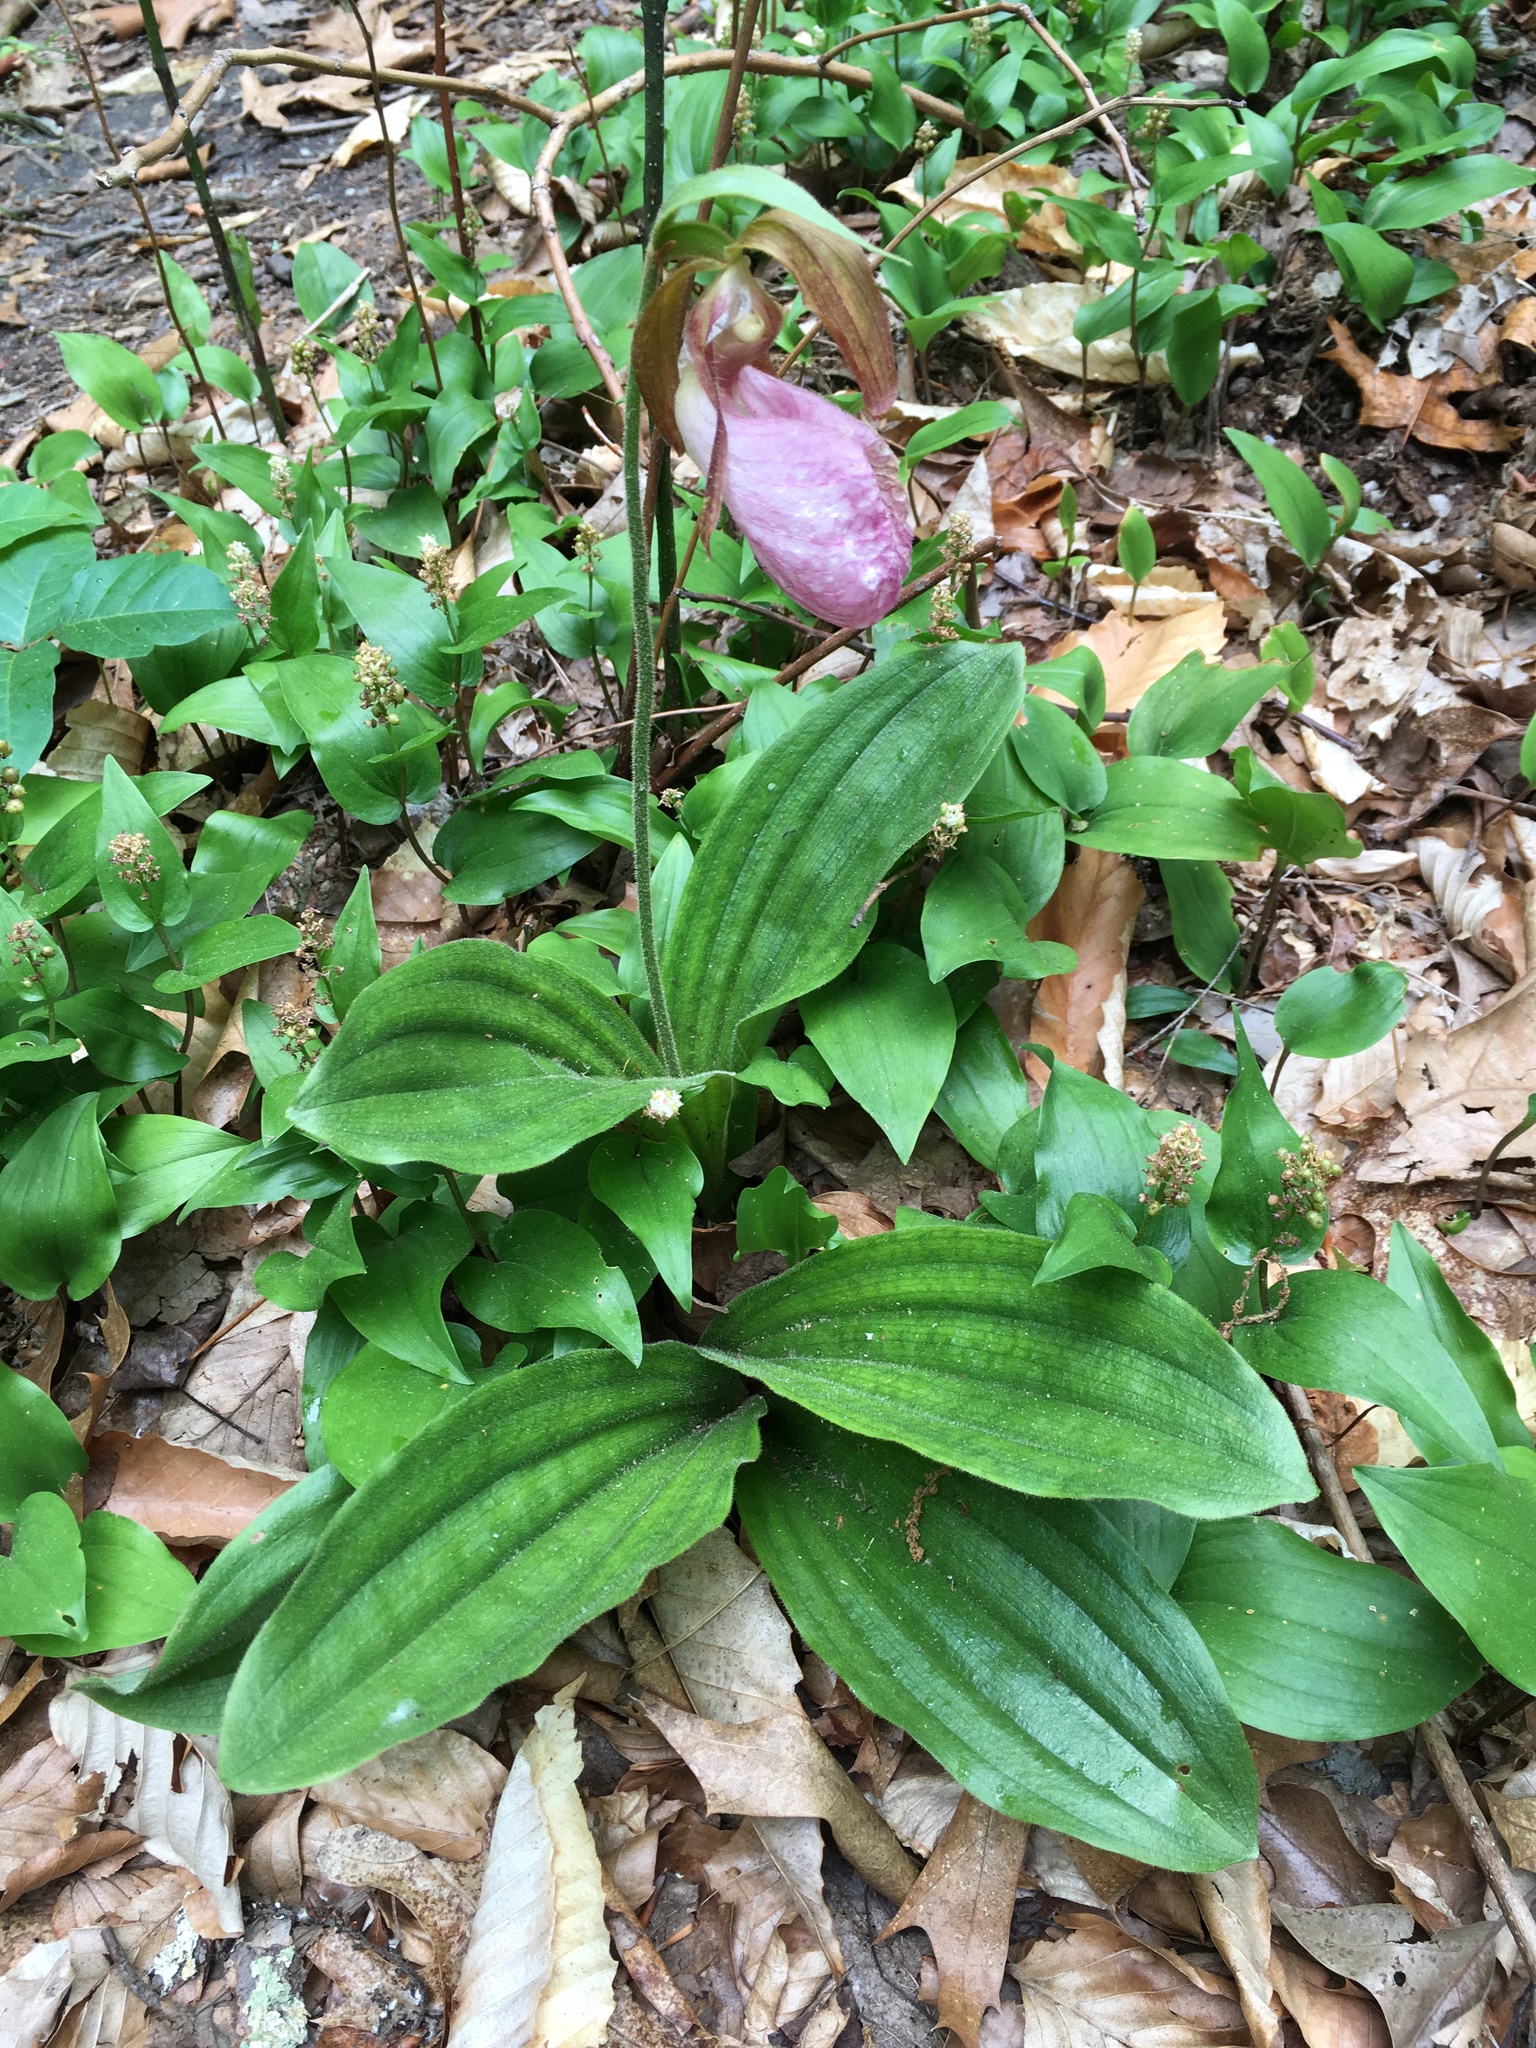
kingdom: Plantae
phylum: Tracheophyta
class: Liliopsida
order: Asparagales
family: Orchidaceae
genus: Cypripedium
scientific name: Cypripedium acaule
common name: Pink lady's-slipper
